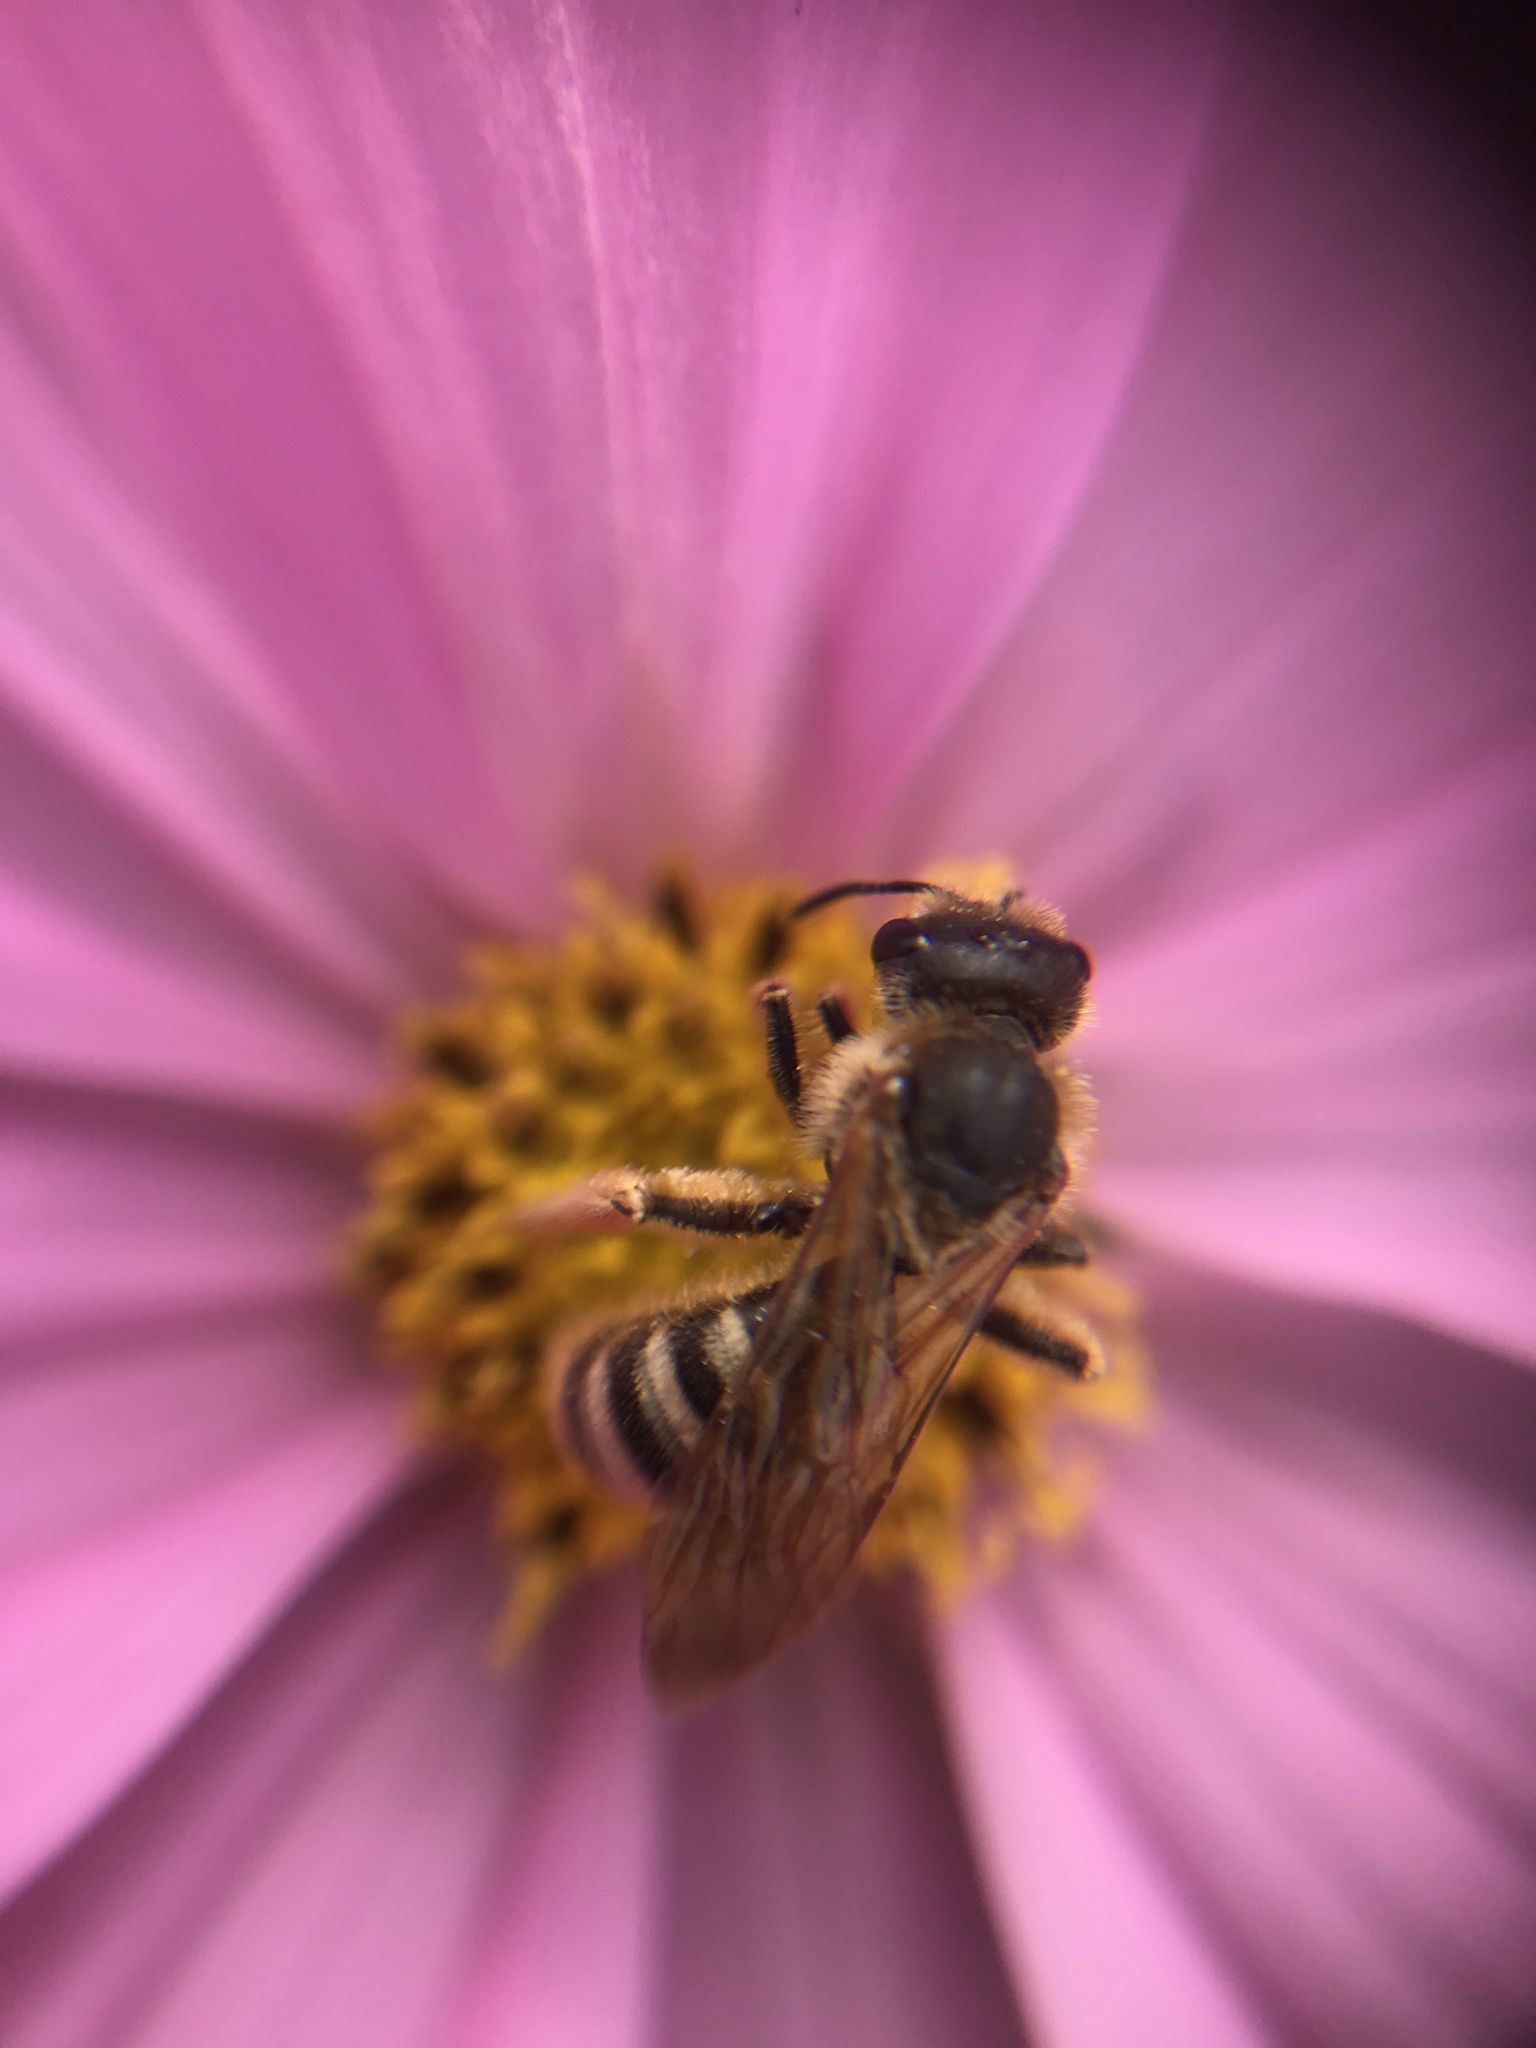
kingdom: Animalia
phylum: Arthropoda
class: Insecta
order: Hymenoptera
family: Halictidae
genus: Halictus
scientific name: Halictus scabiosae
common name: Great banded furrow bee
